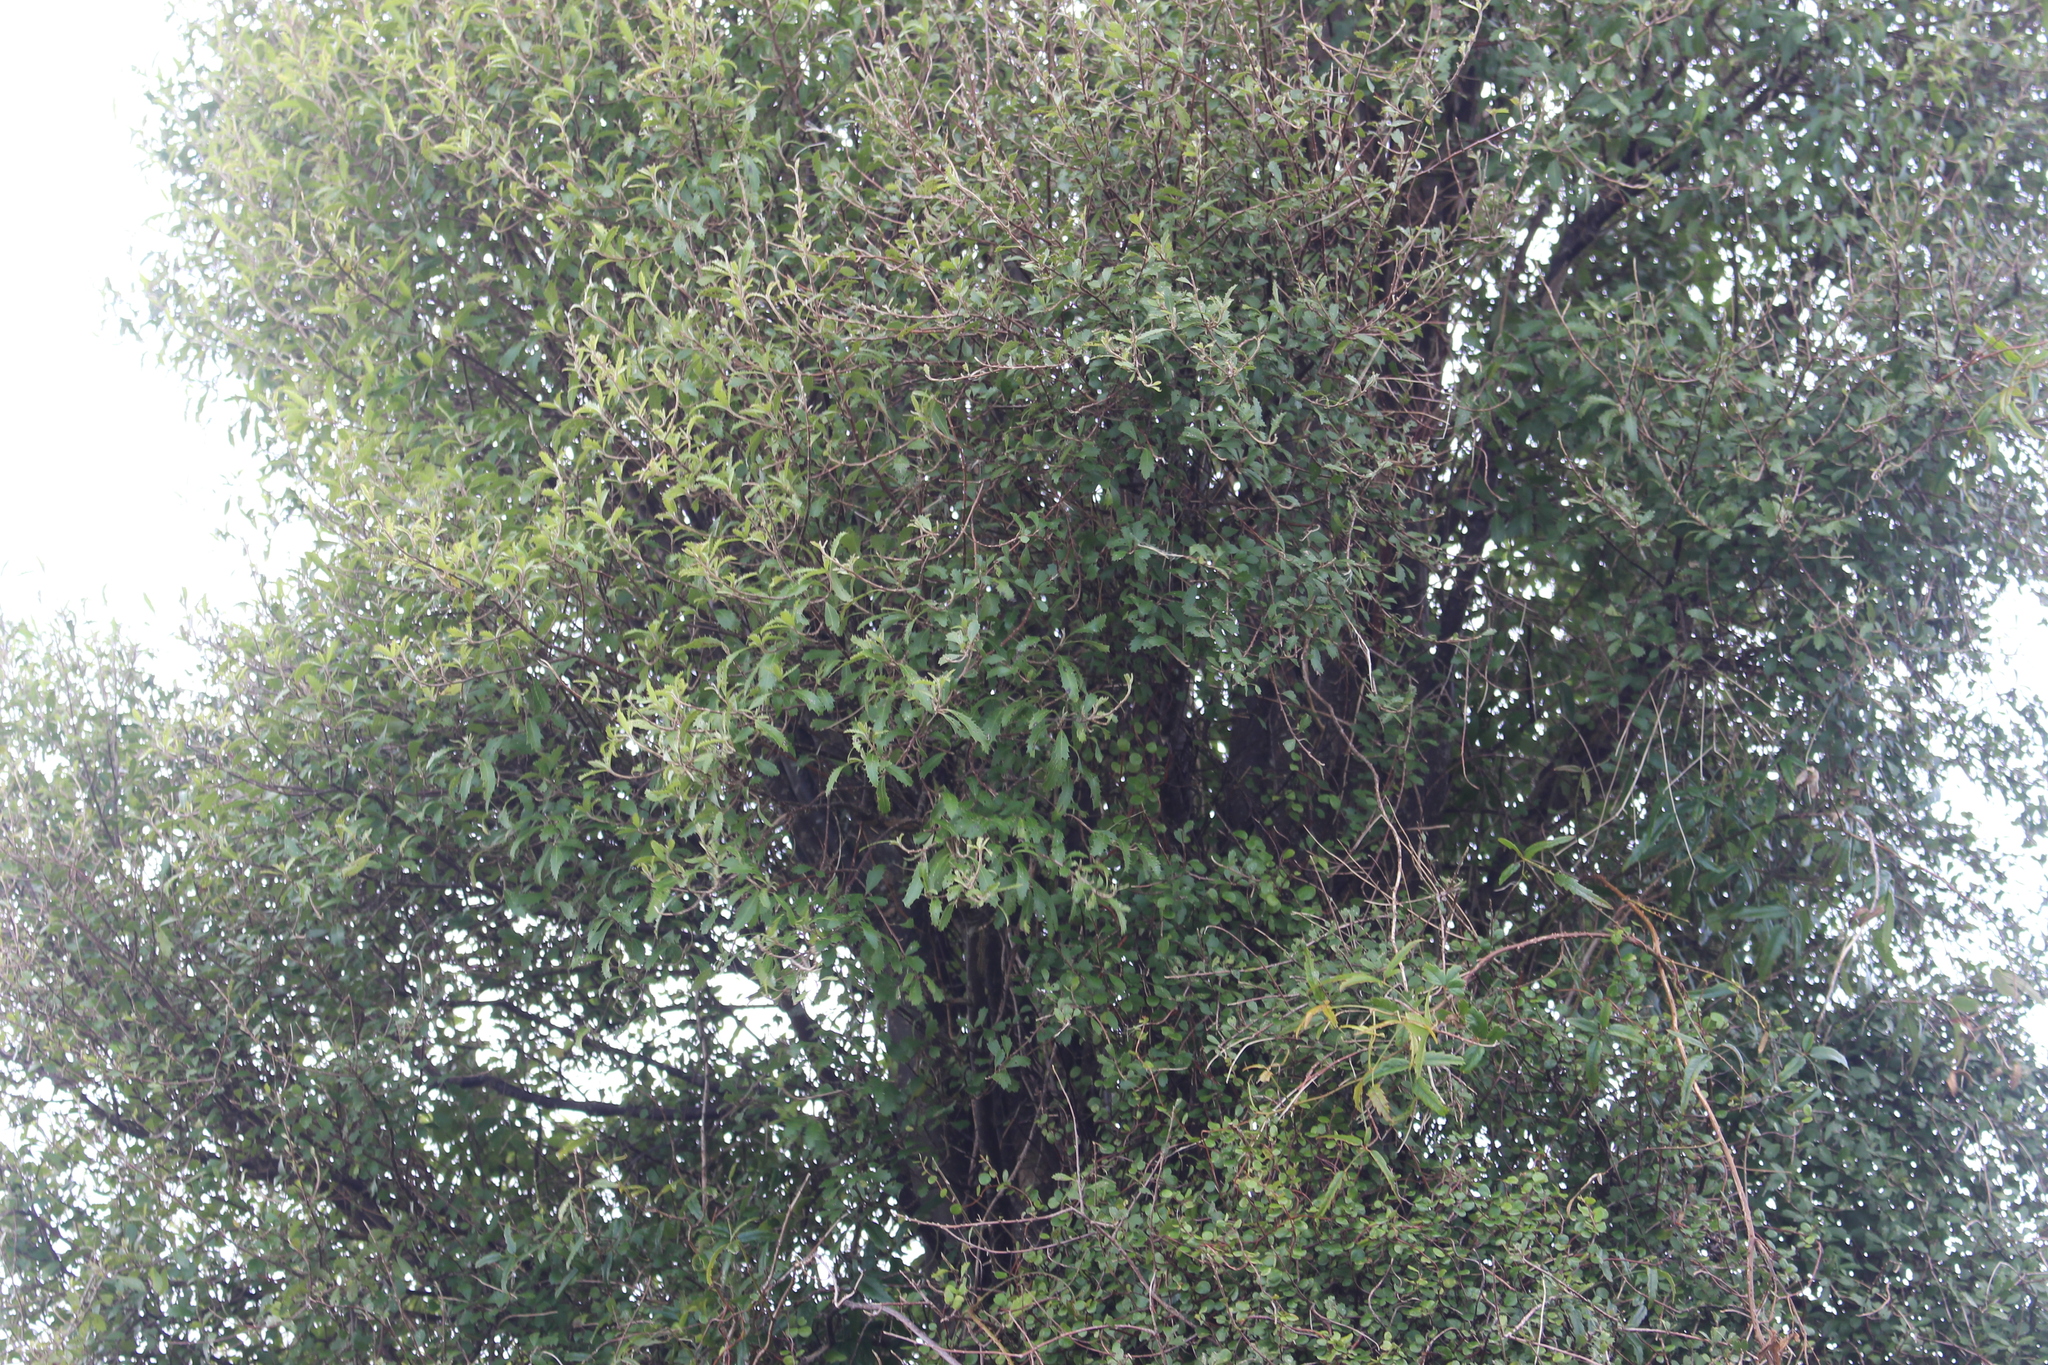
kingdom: Plantae
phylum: Tracheophyta
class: Magnoliopsida
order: Malvales
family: Malvaceae
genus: Hoheria
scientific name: Hoheria angustifolia
